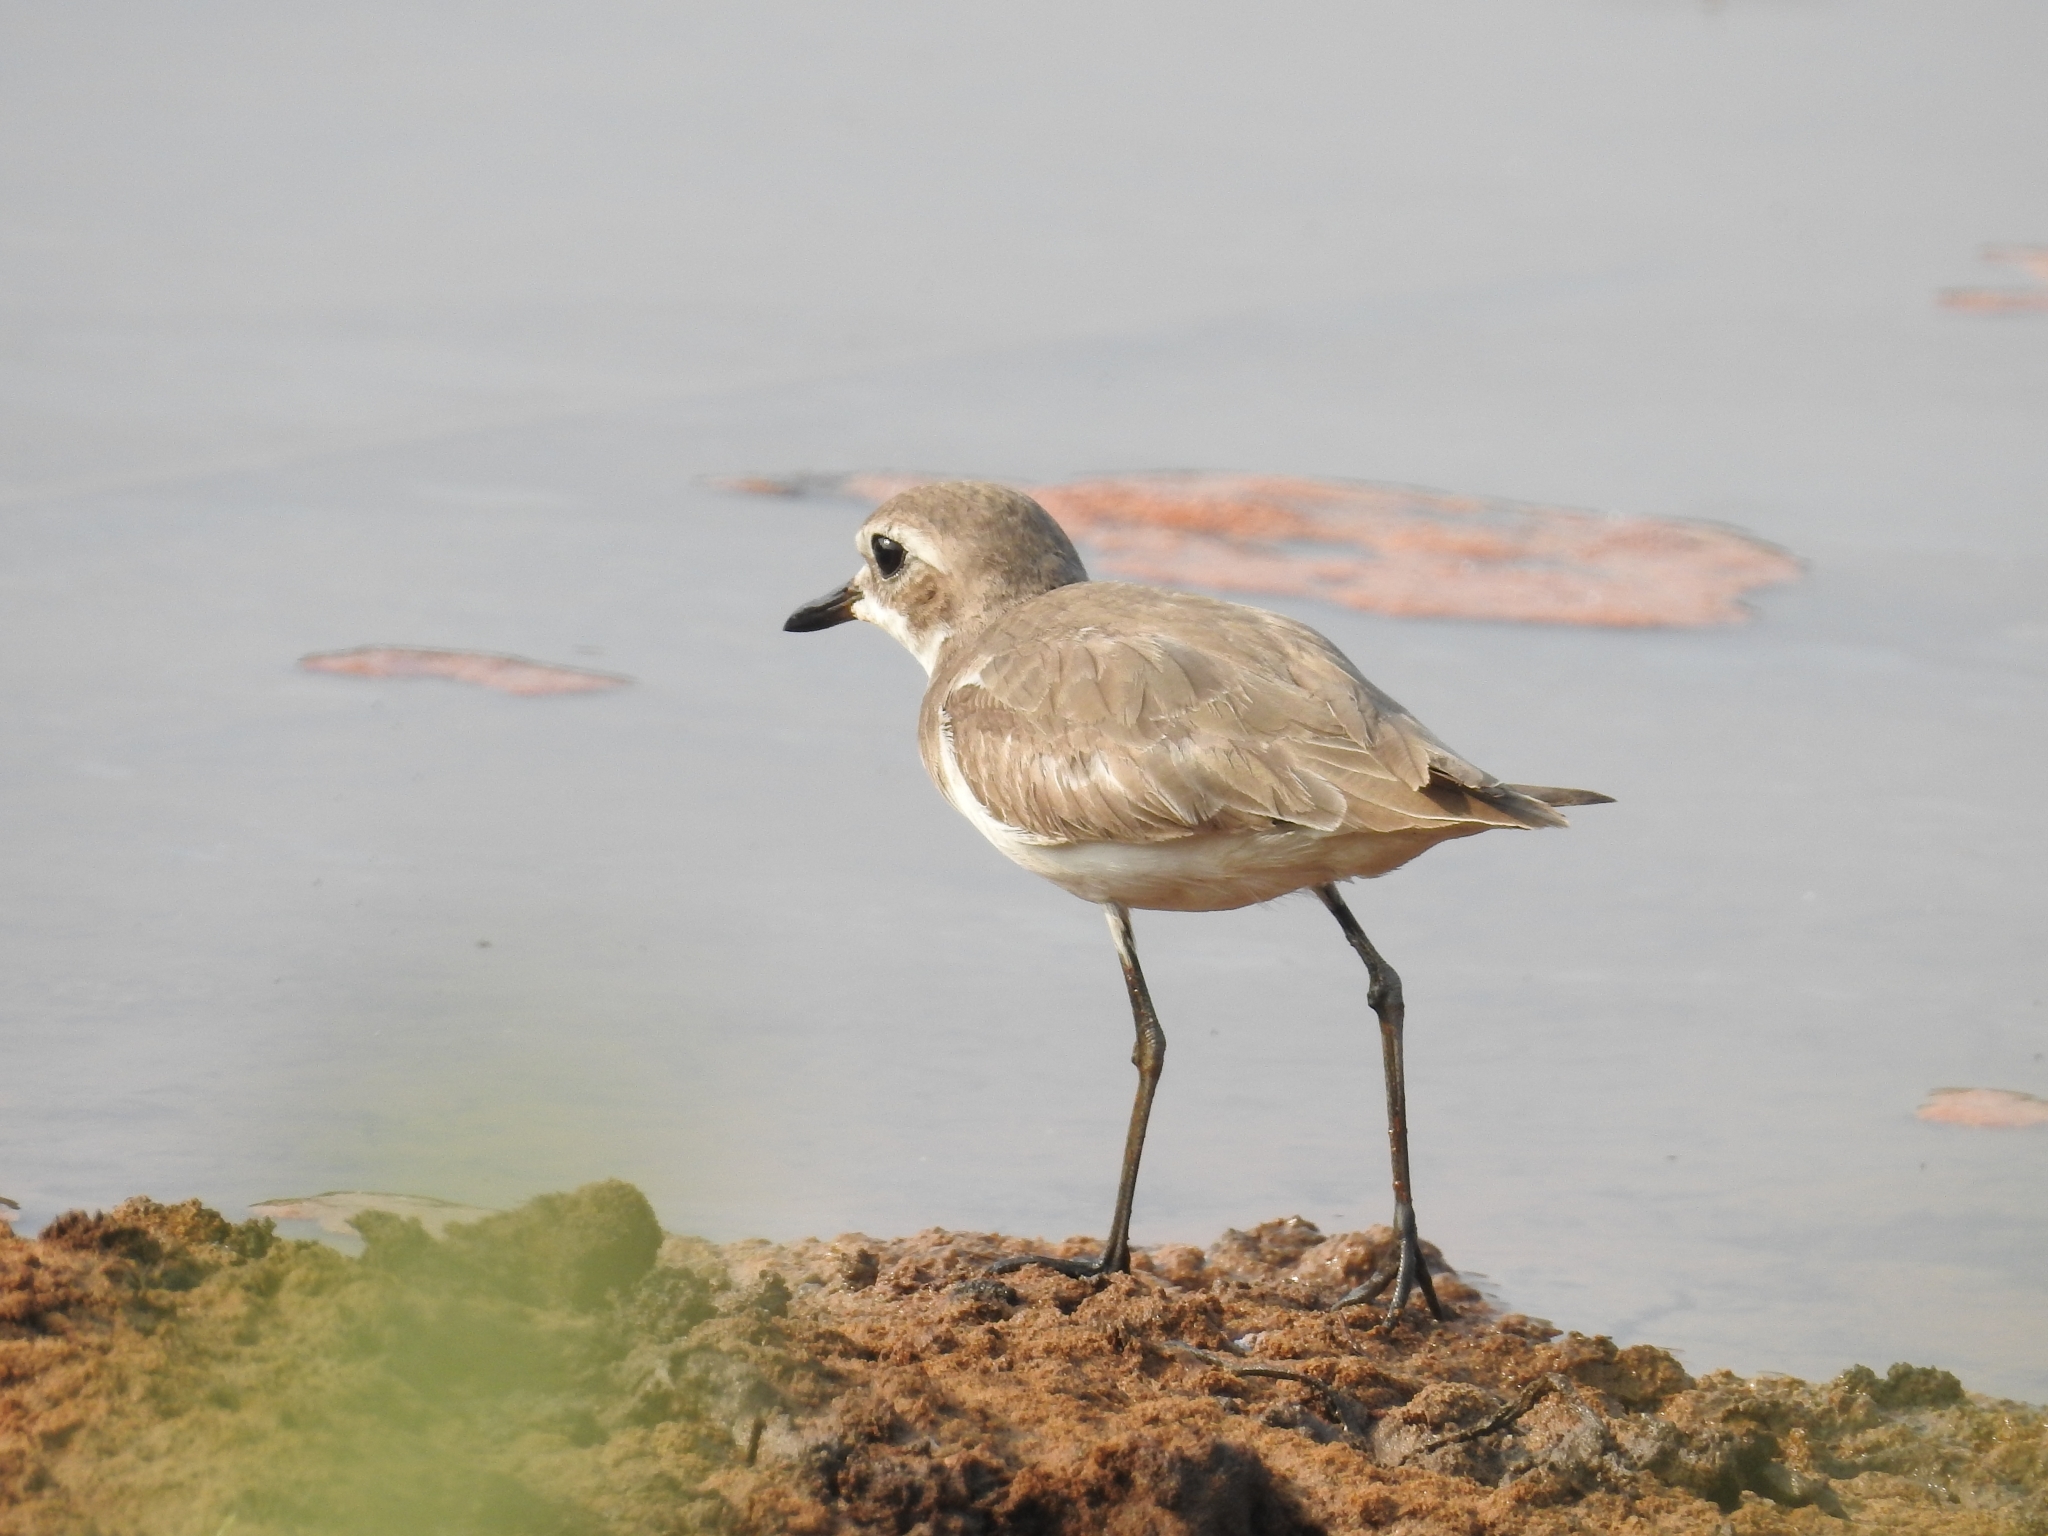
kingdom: Animalia
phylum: Chordata
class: Aves
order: Charadriiformes
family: Charadriidae
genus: Anarhynchus
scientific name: Anarhynchus
